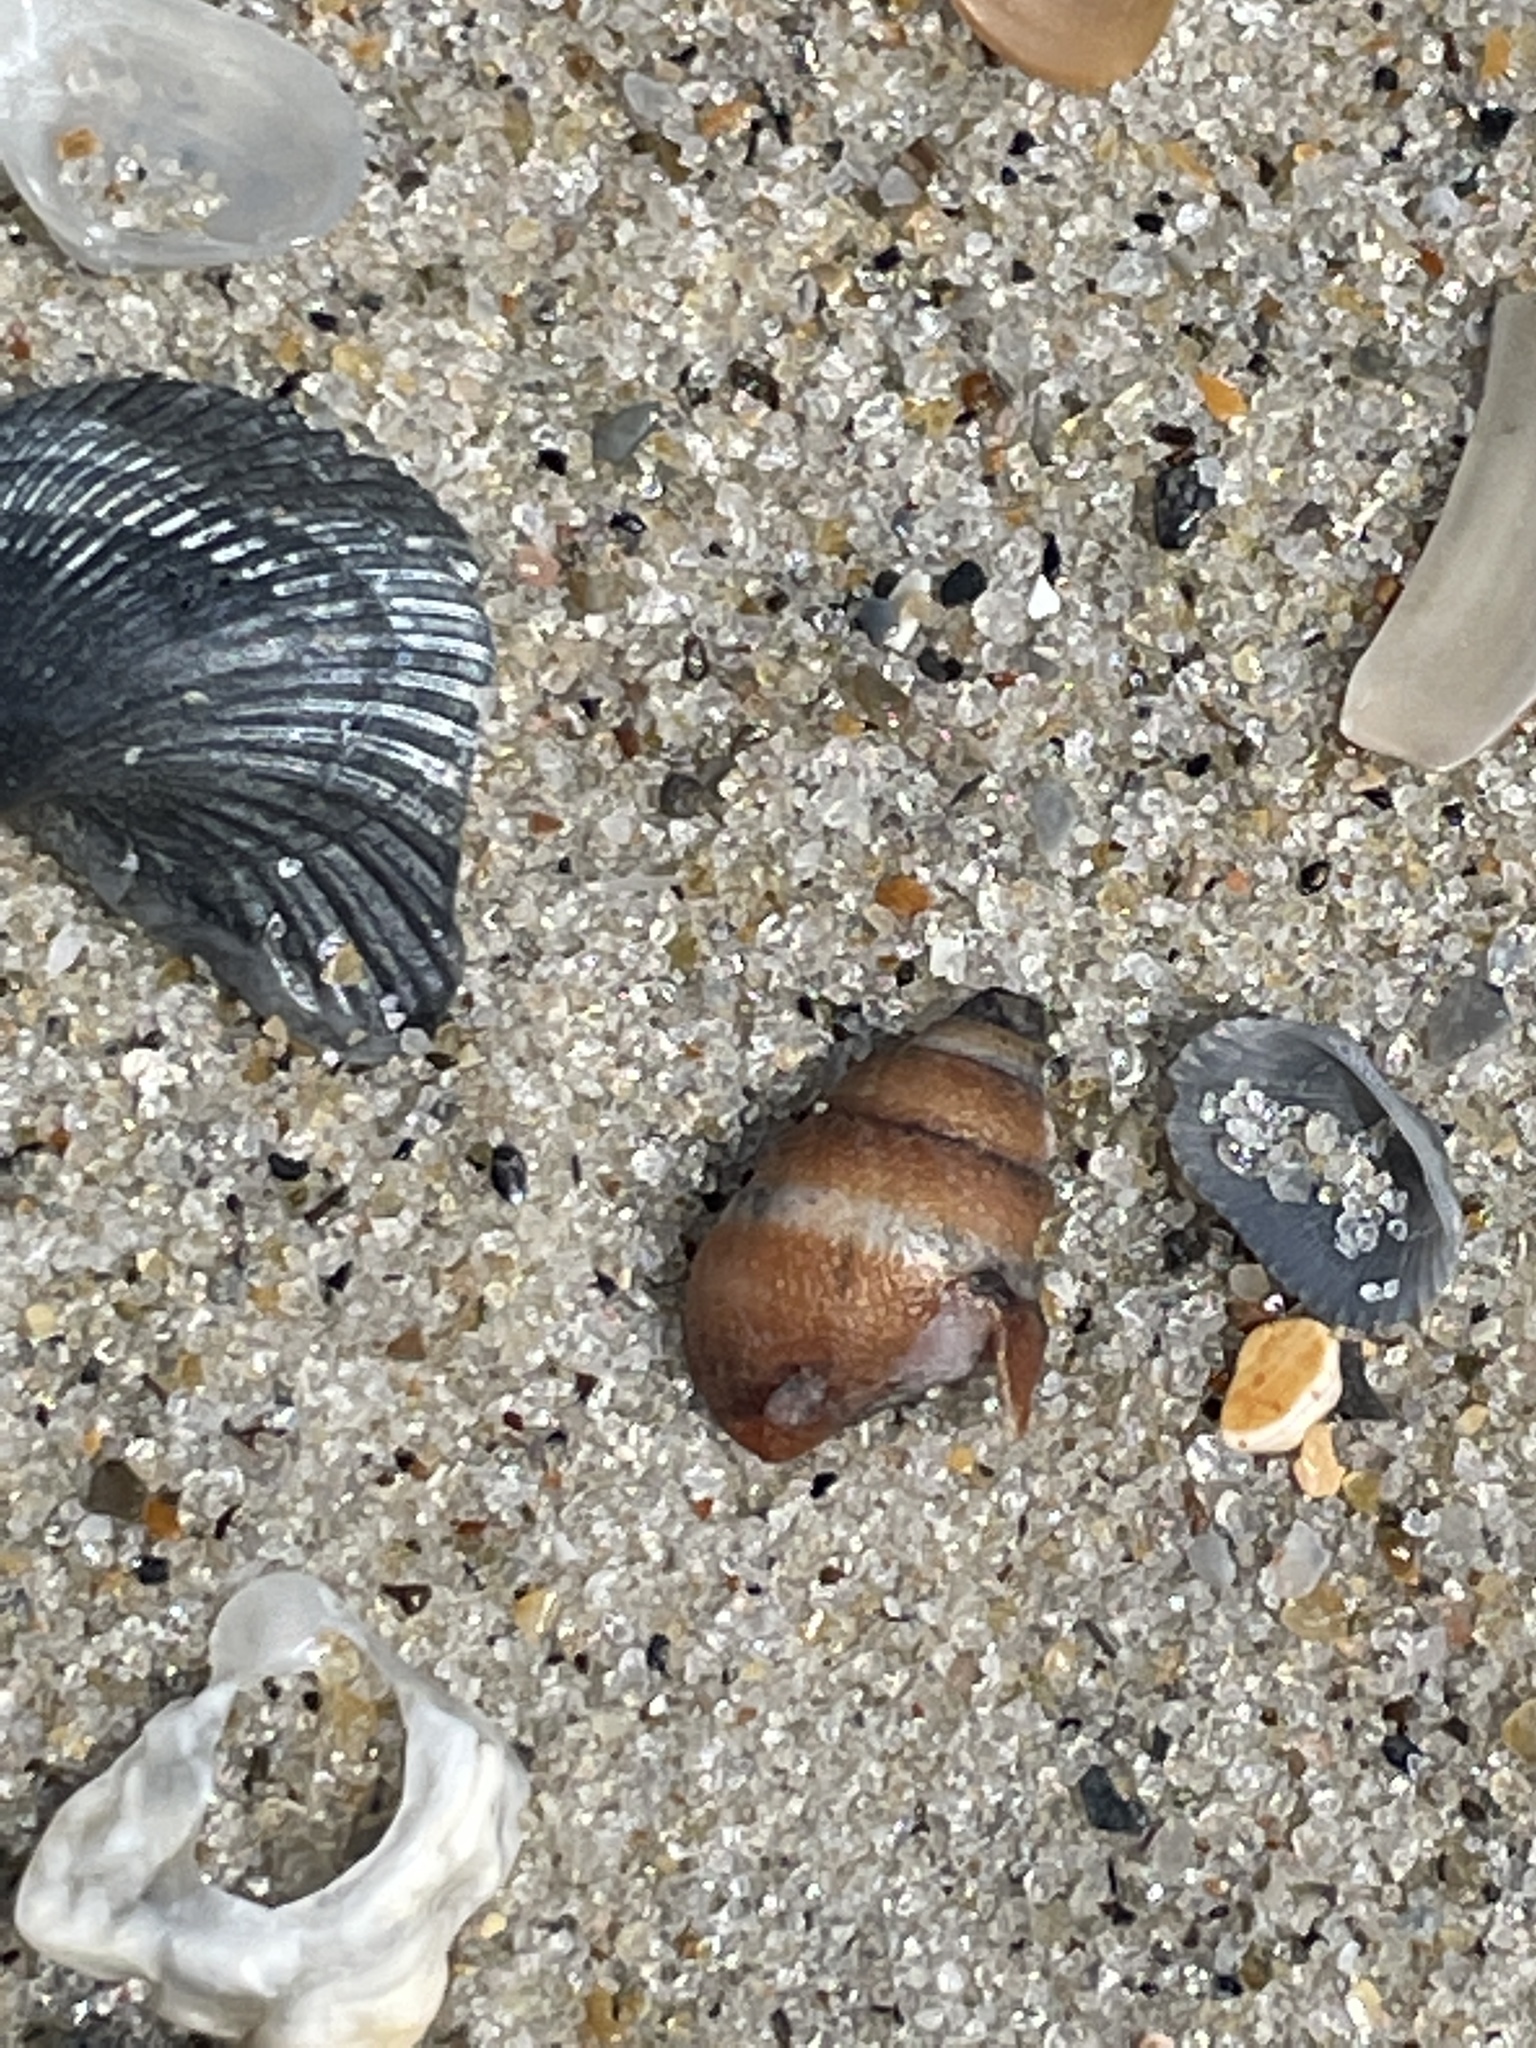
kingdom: Animalia
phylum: Mollusca
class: Gastropoda
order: Neogastropoda
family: Nassariidae
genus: Ilyanassa
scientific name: Ilyanassa trivittata
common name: Three-line mudsnail
